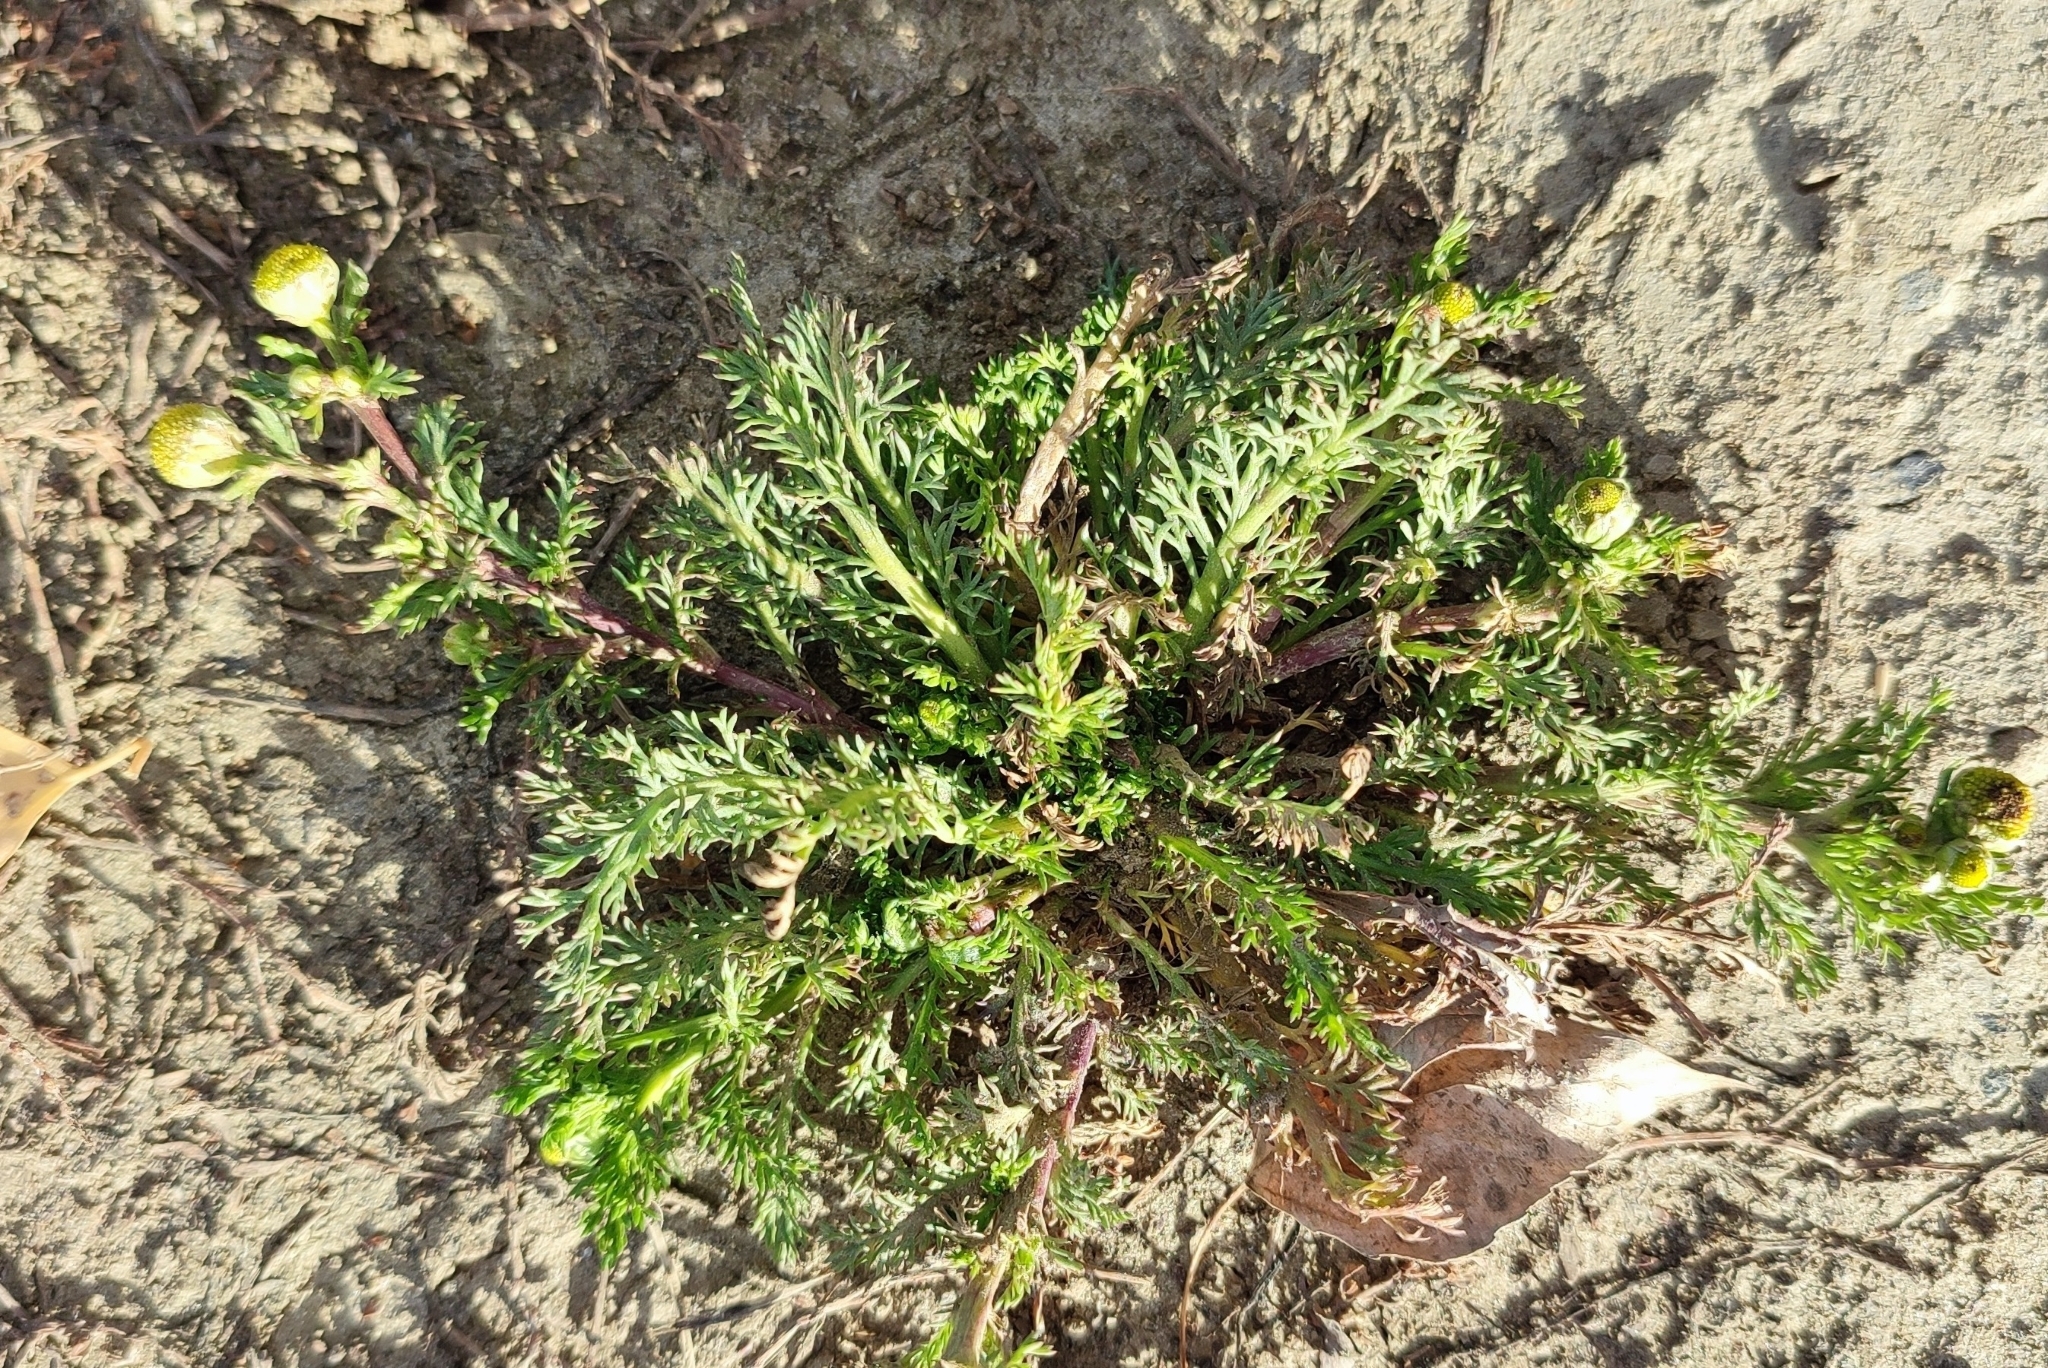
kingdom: Plantae
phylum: Tracheophyta
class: Magnoliopsida
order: Asterales
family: Asteraceae
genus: Matricaria
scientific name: Matricaria discoidea
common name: Disc mayweed
